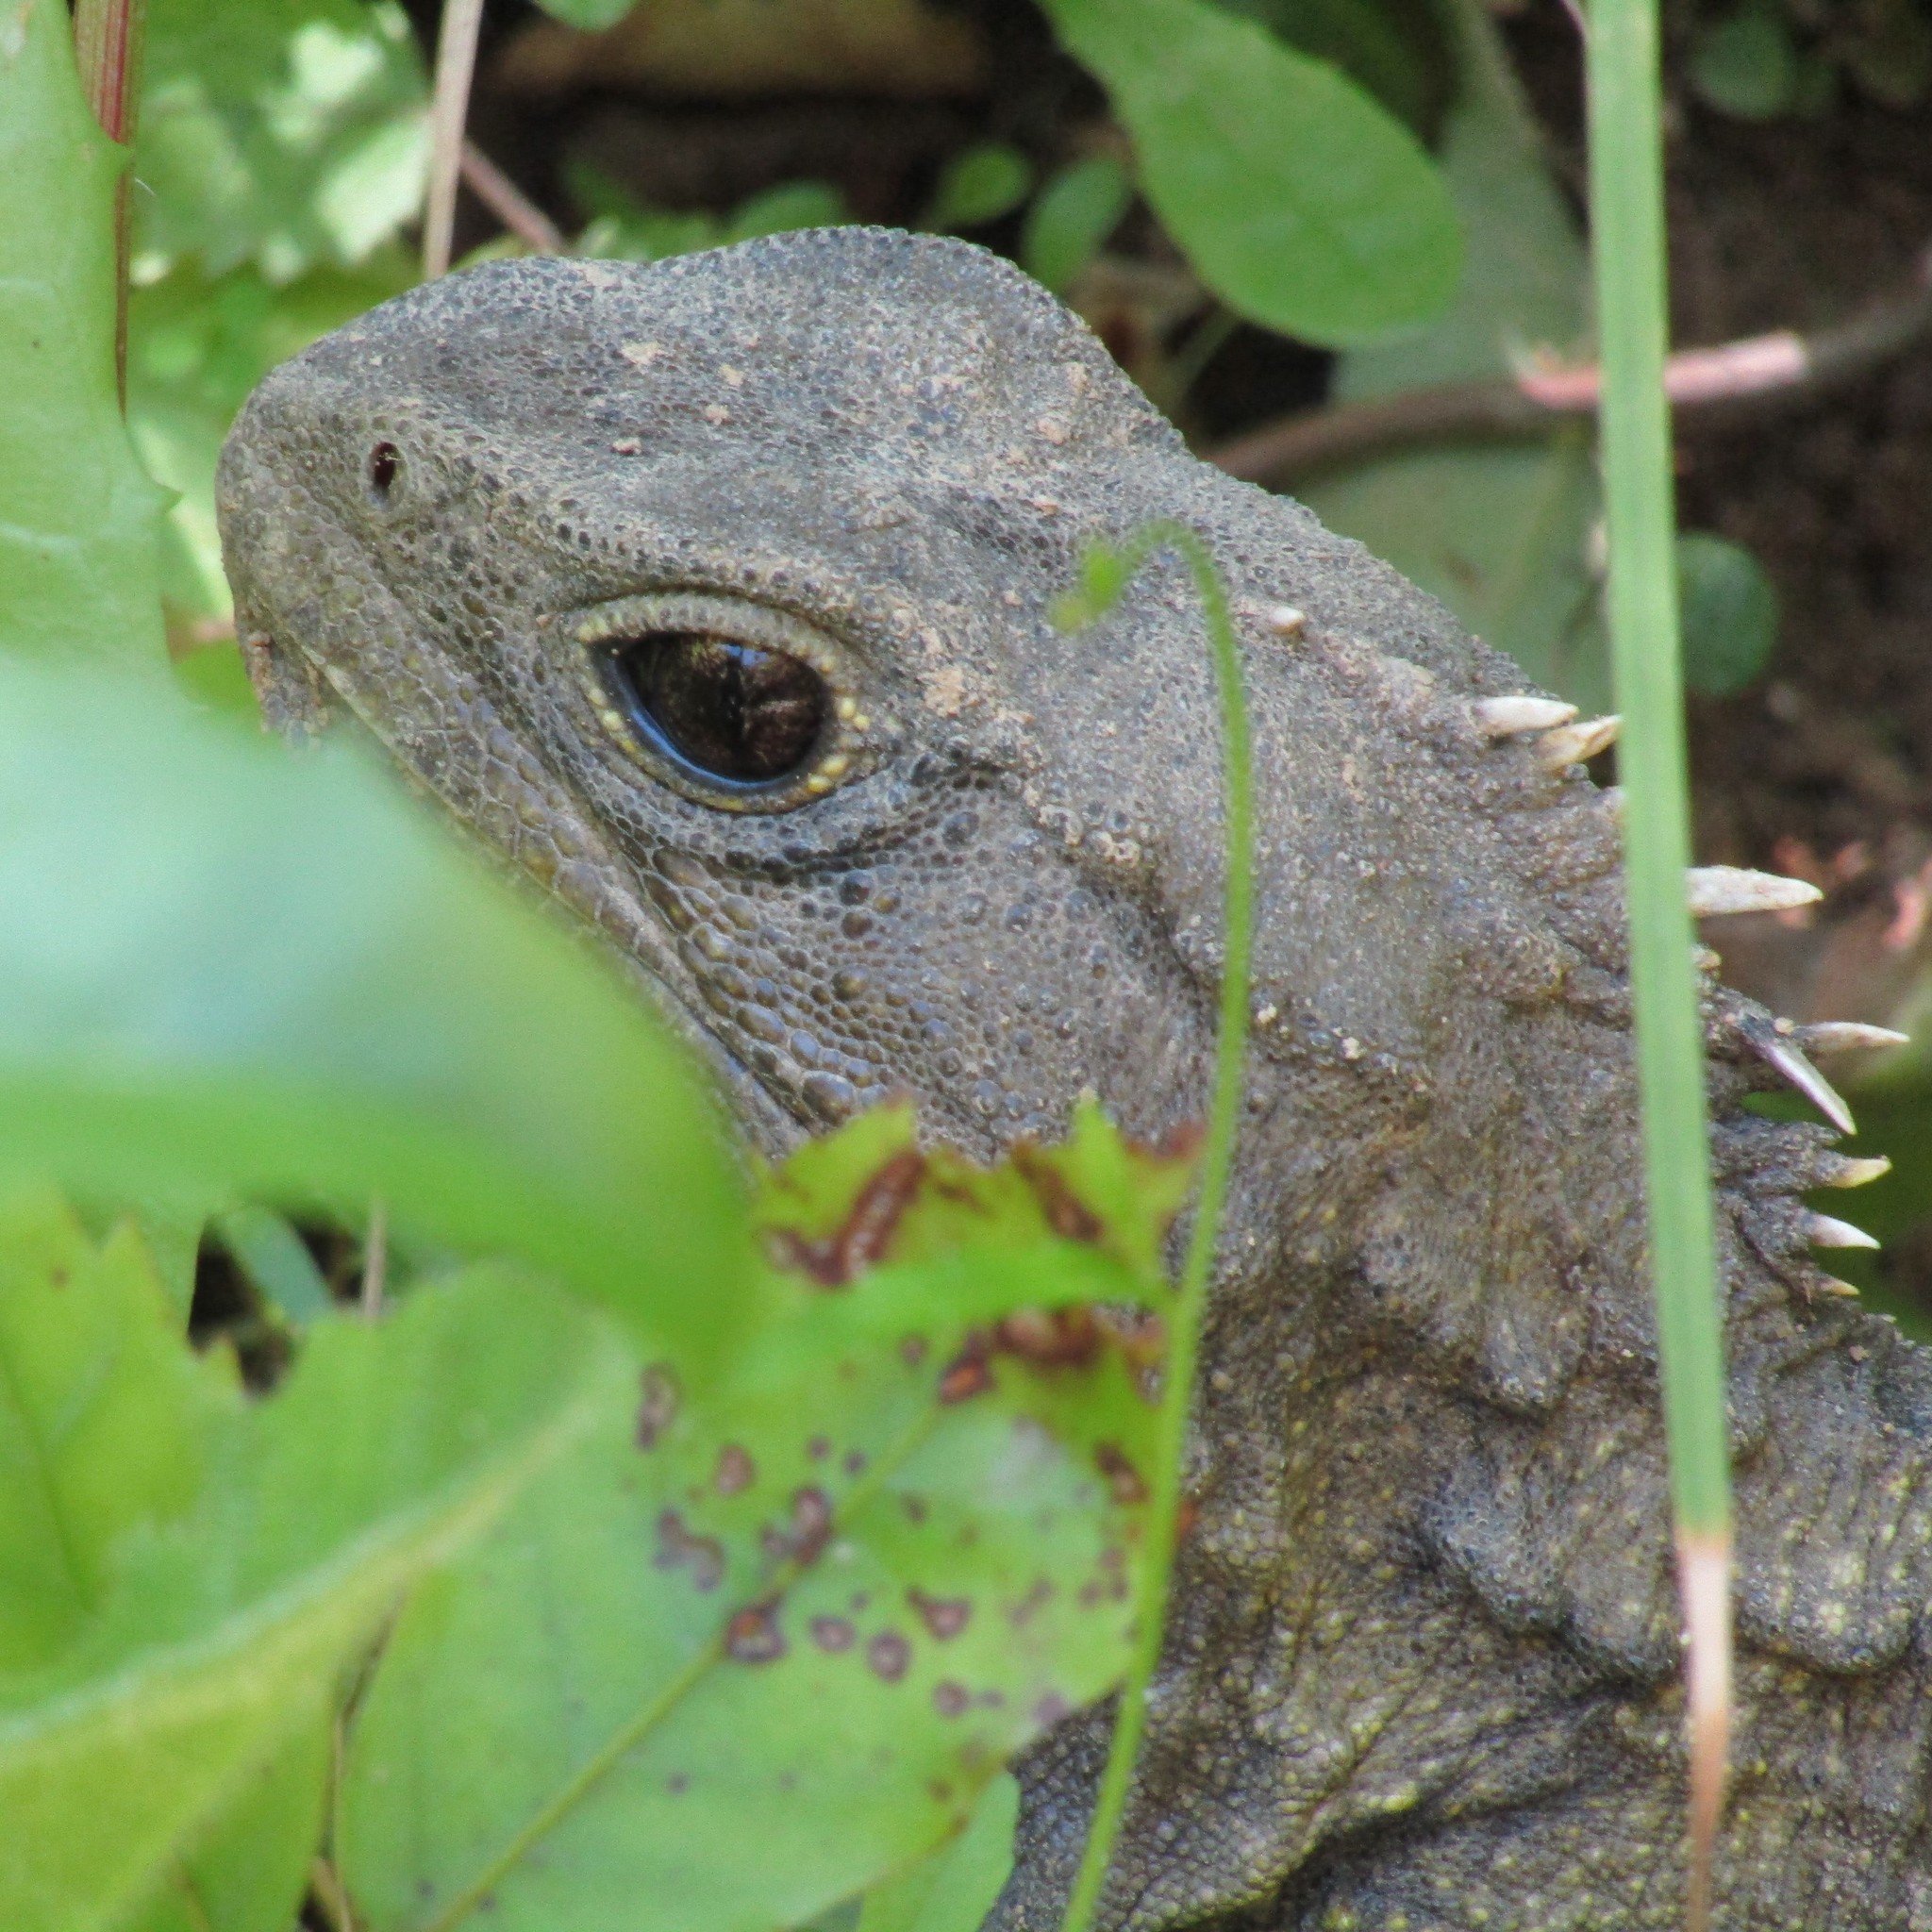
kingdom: Animalia
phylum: Chordata
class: Sphenodontia
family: Sphenodontidae
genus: Sphenodon
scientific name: Sphenodon punctatus
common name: Tuatara
